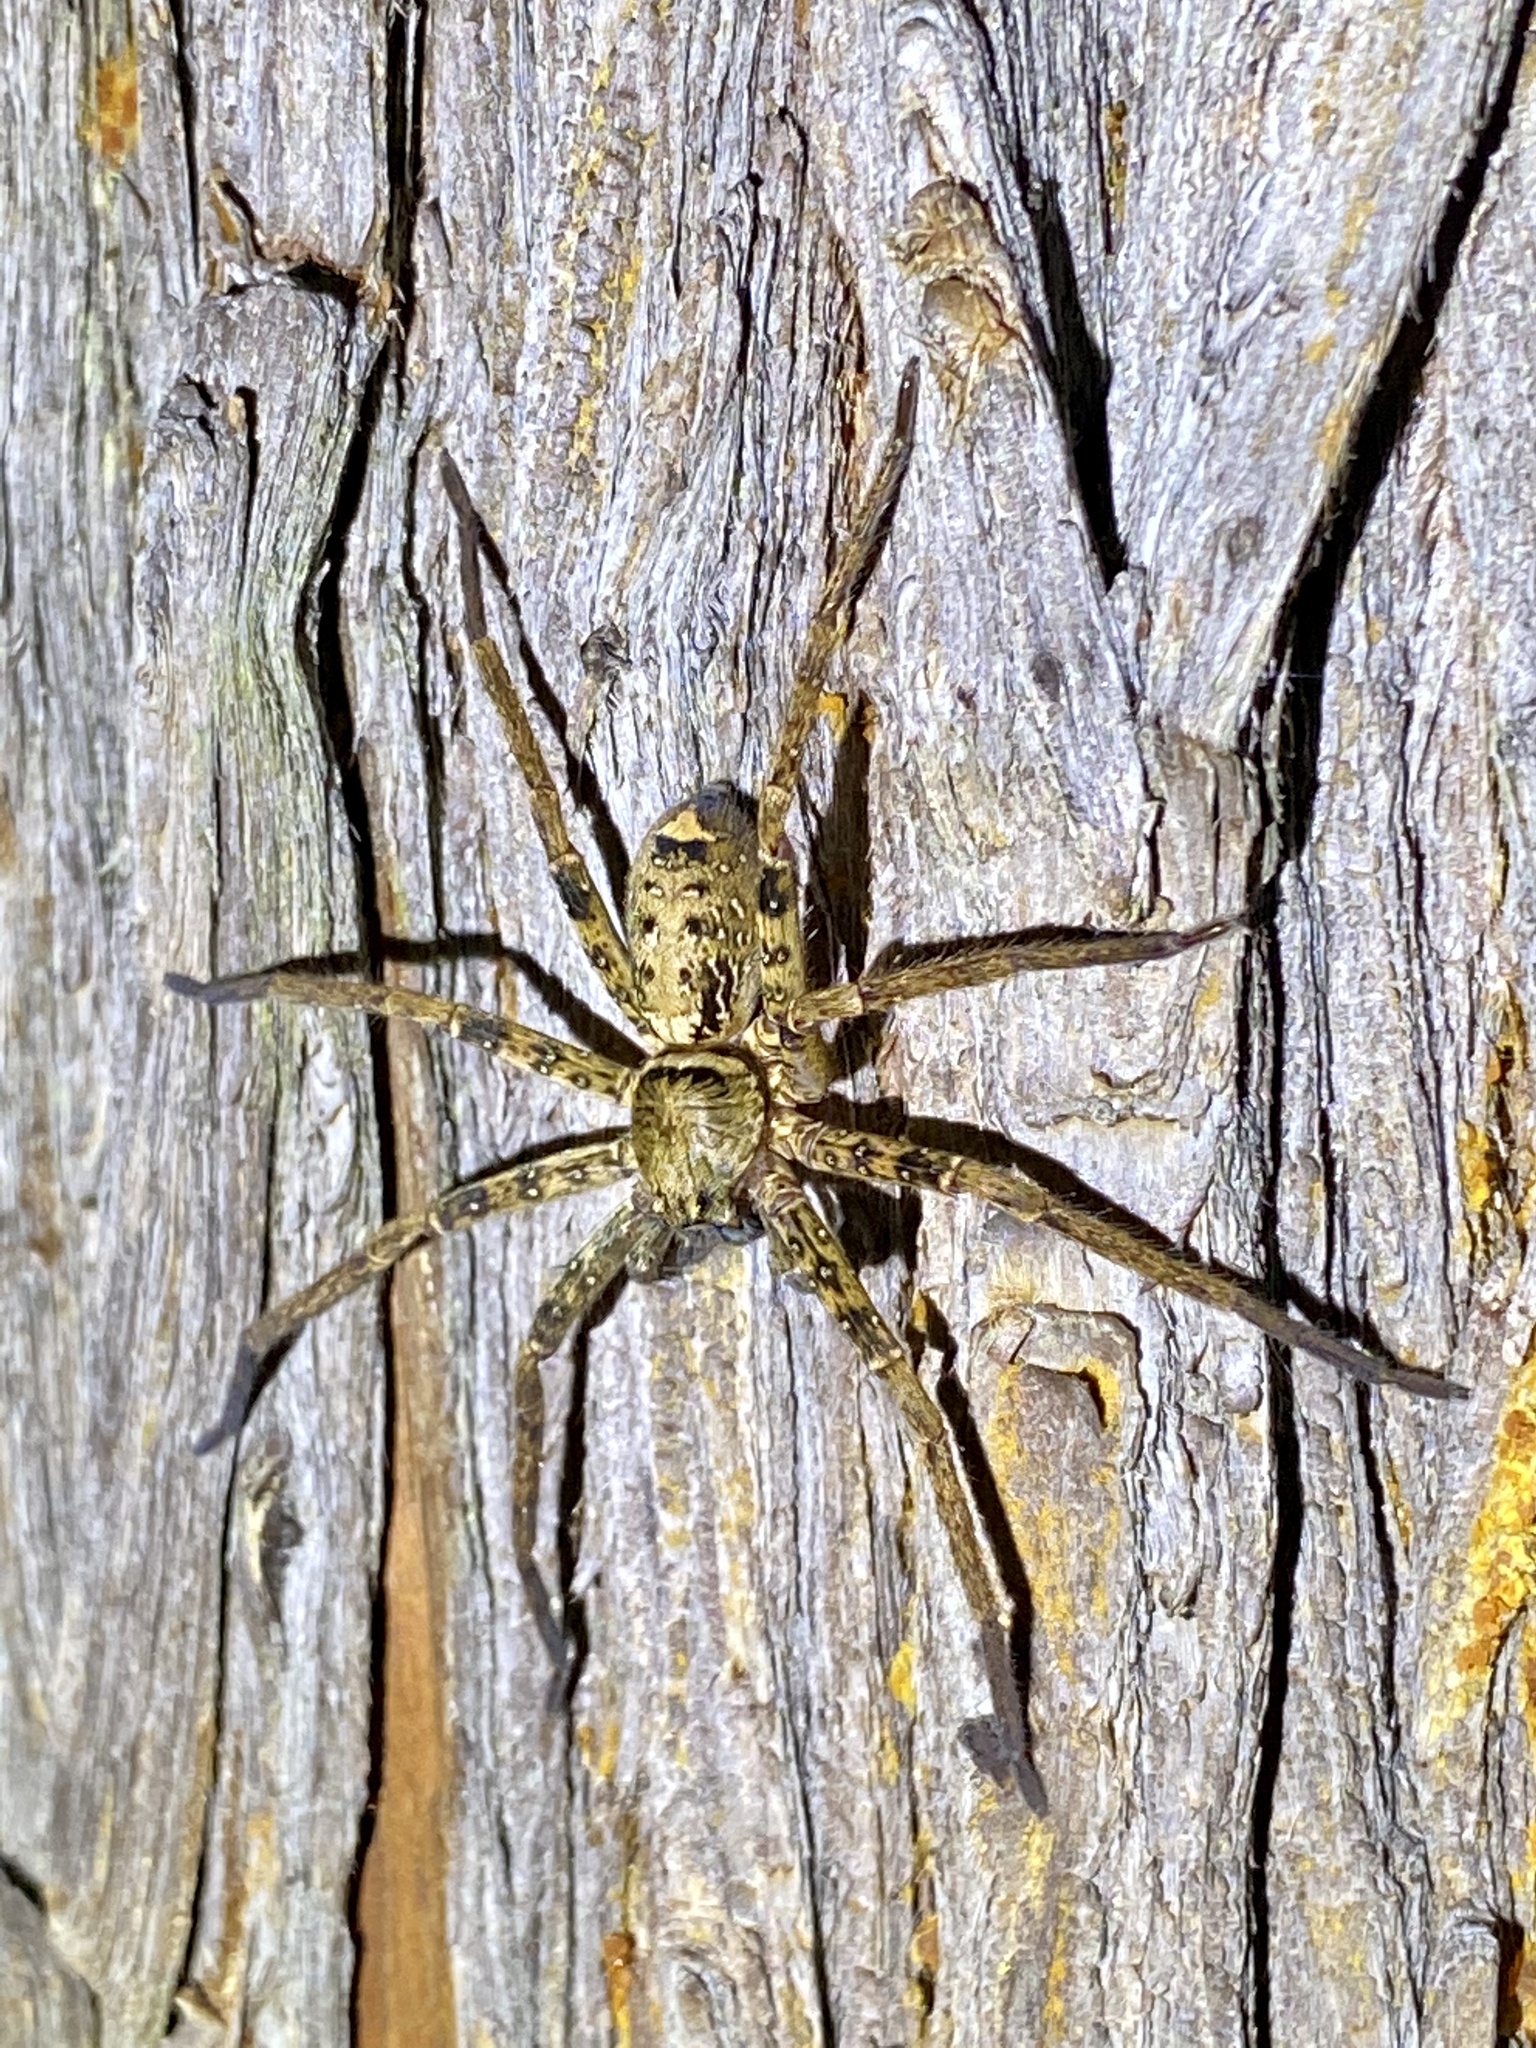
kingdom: Animalia
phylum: Arthropoda
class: Arachnida
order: Araneae
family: Sparassidae
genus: Sinopoda
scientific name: Sinopoda forcipata
